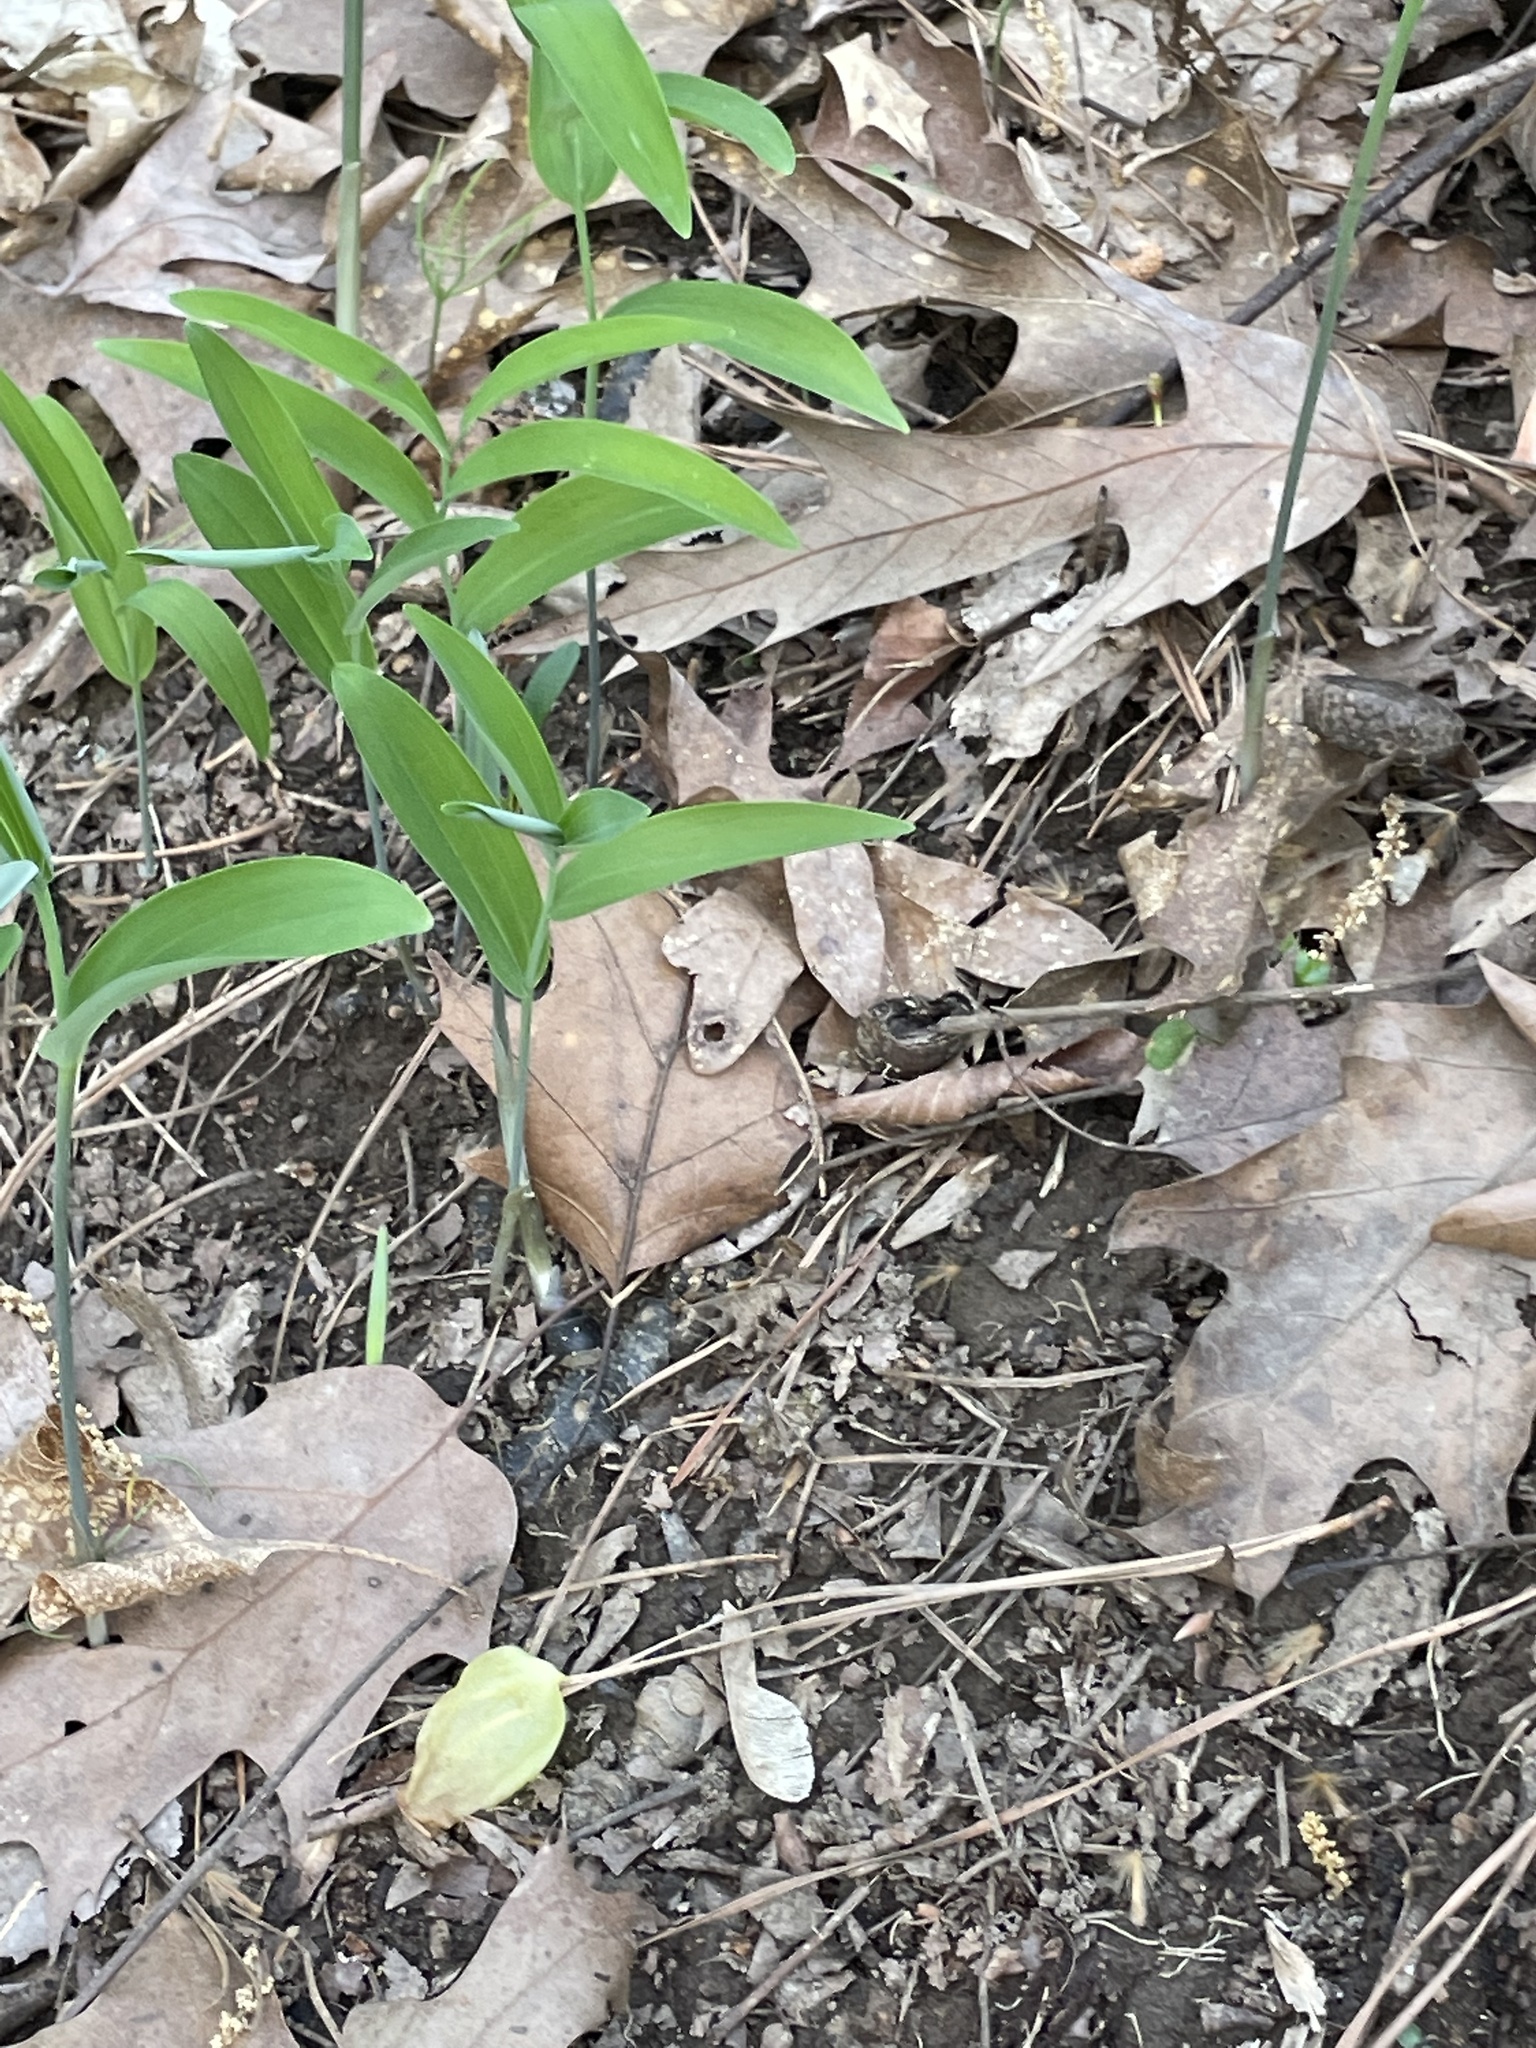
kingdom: Plantae
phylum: Tracheophyta
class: Liliopsida
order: Asparagales
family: Asparagaceae
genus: Polygonatum
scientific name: Polygonatum biflorum
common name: American solomon's-seal
